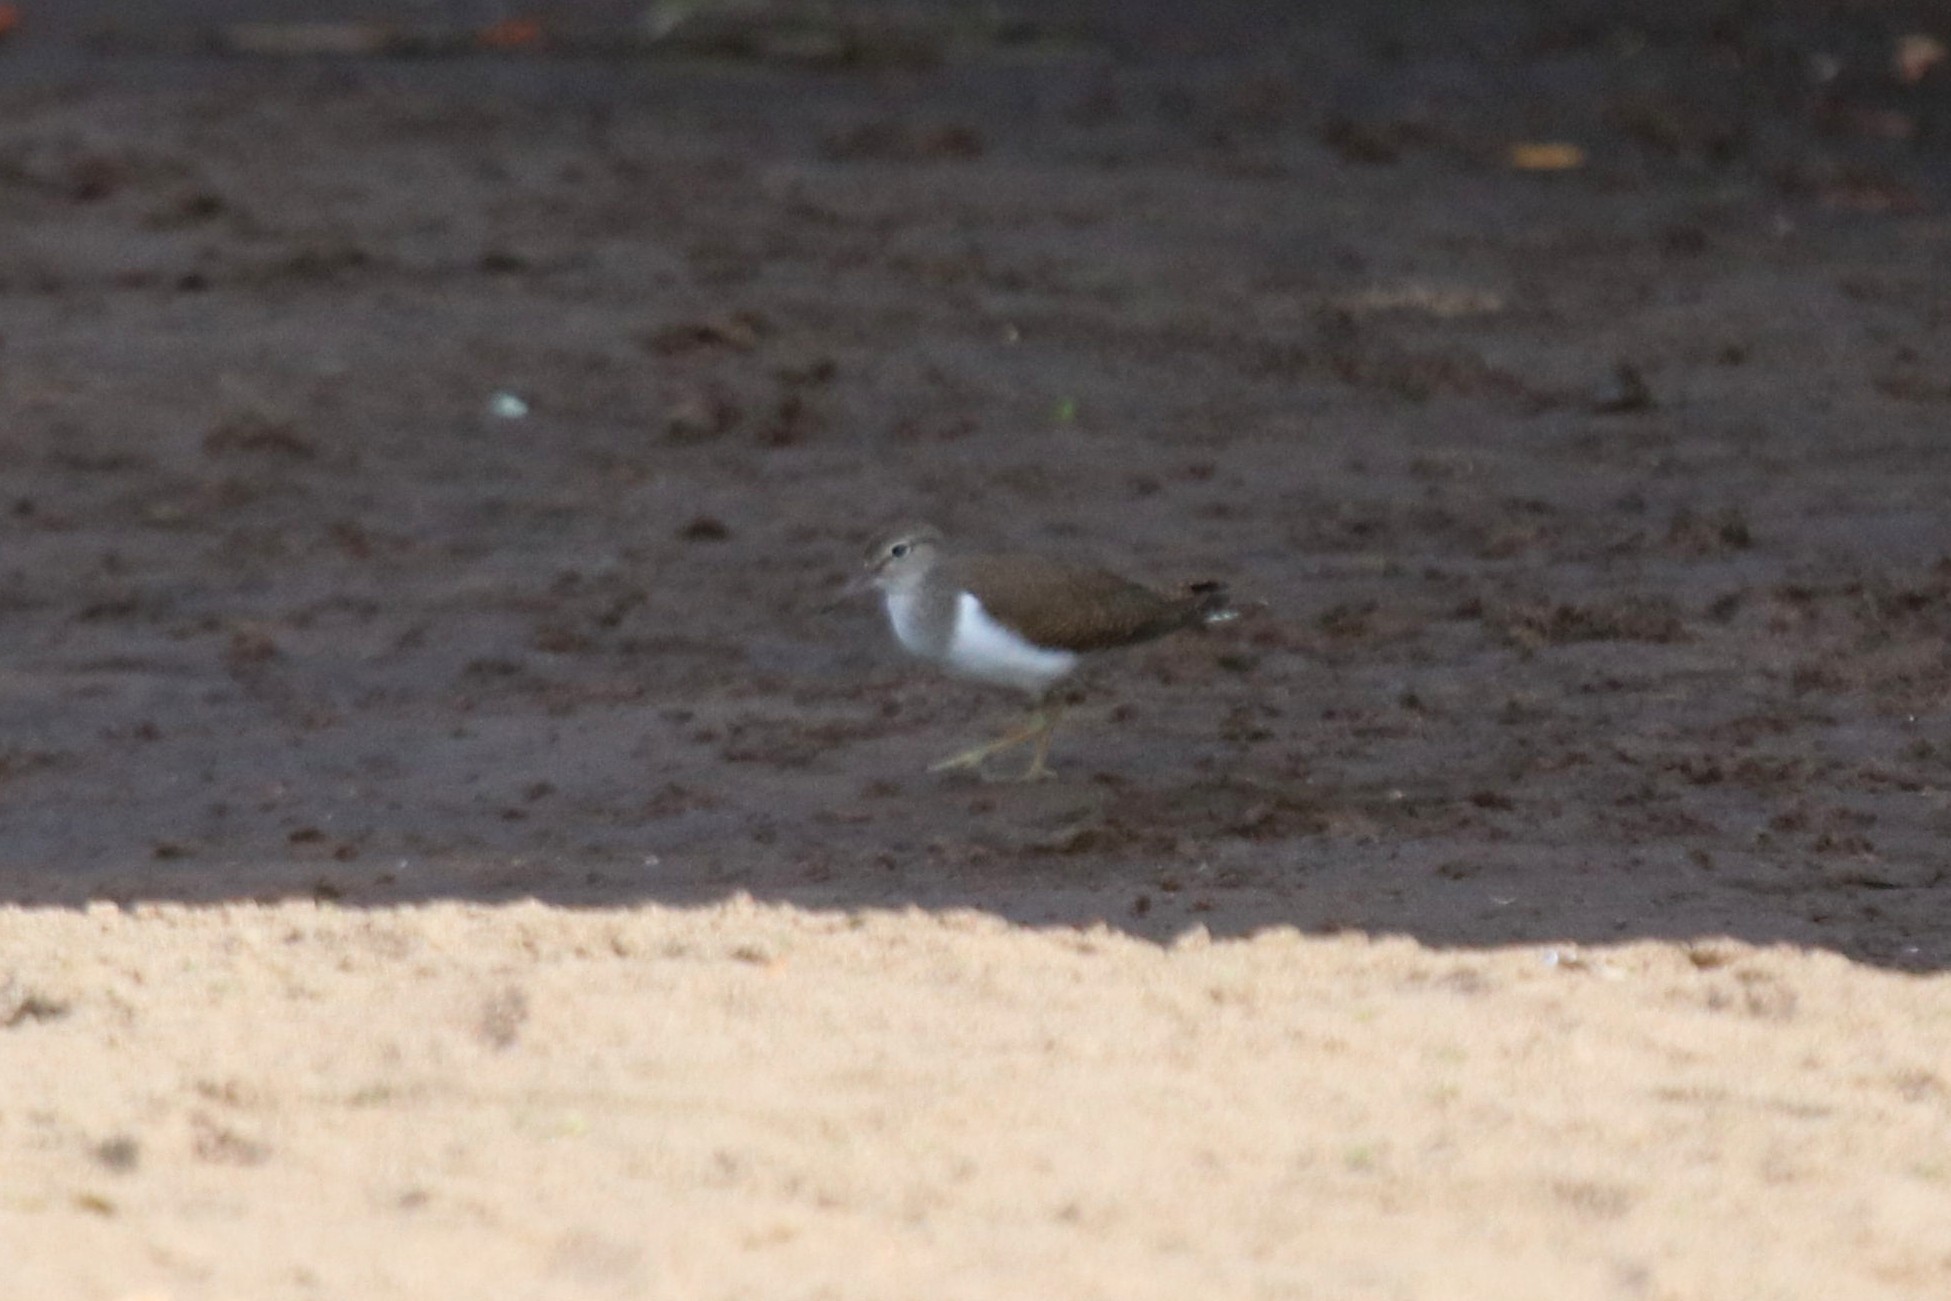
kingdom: Animalia
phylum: Chordata
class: Aves
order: Charadriiformes
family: Scolopacidae
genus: Actitis
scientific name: Actitis hypoleucos
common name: Common sandpiper
